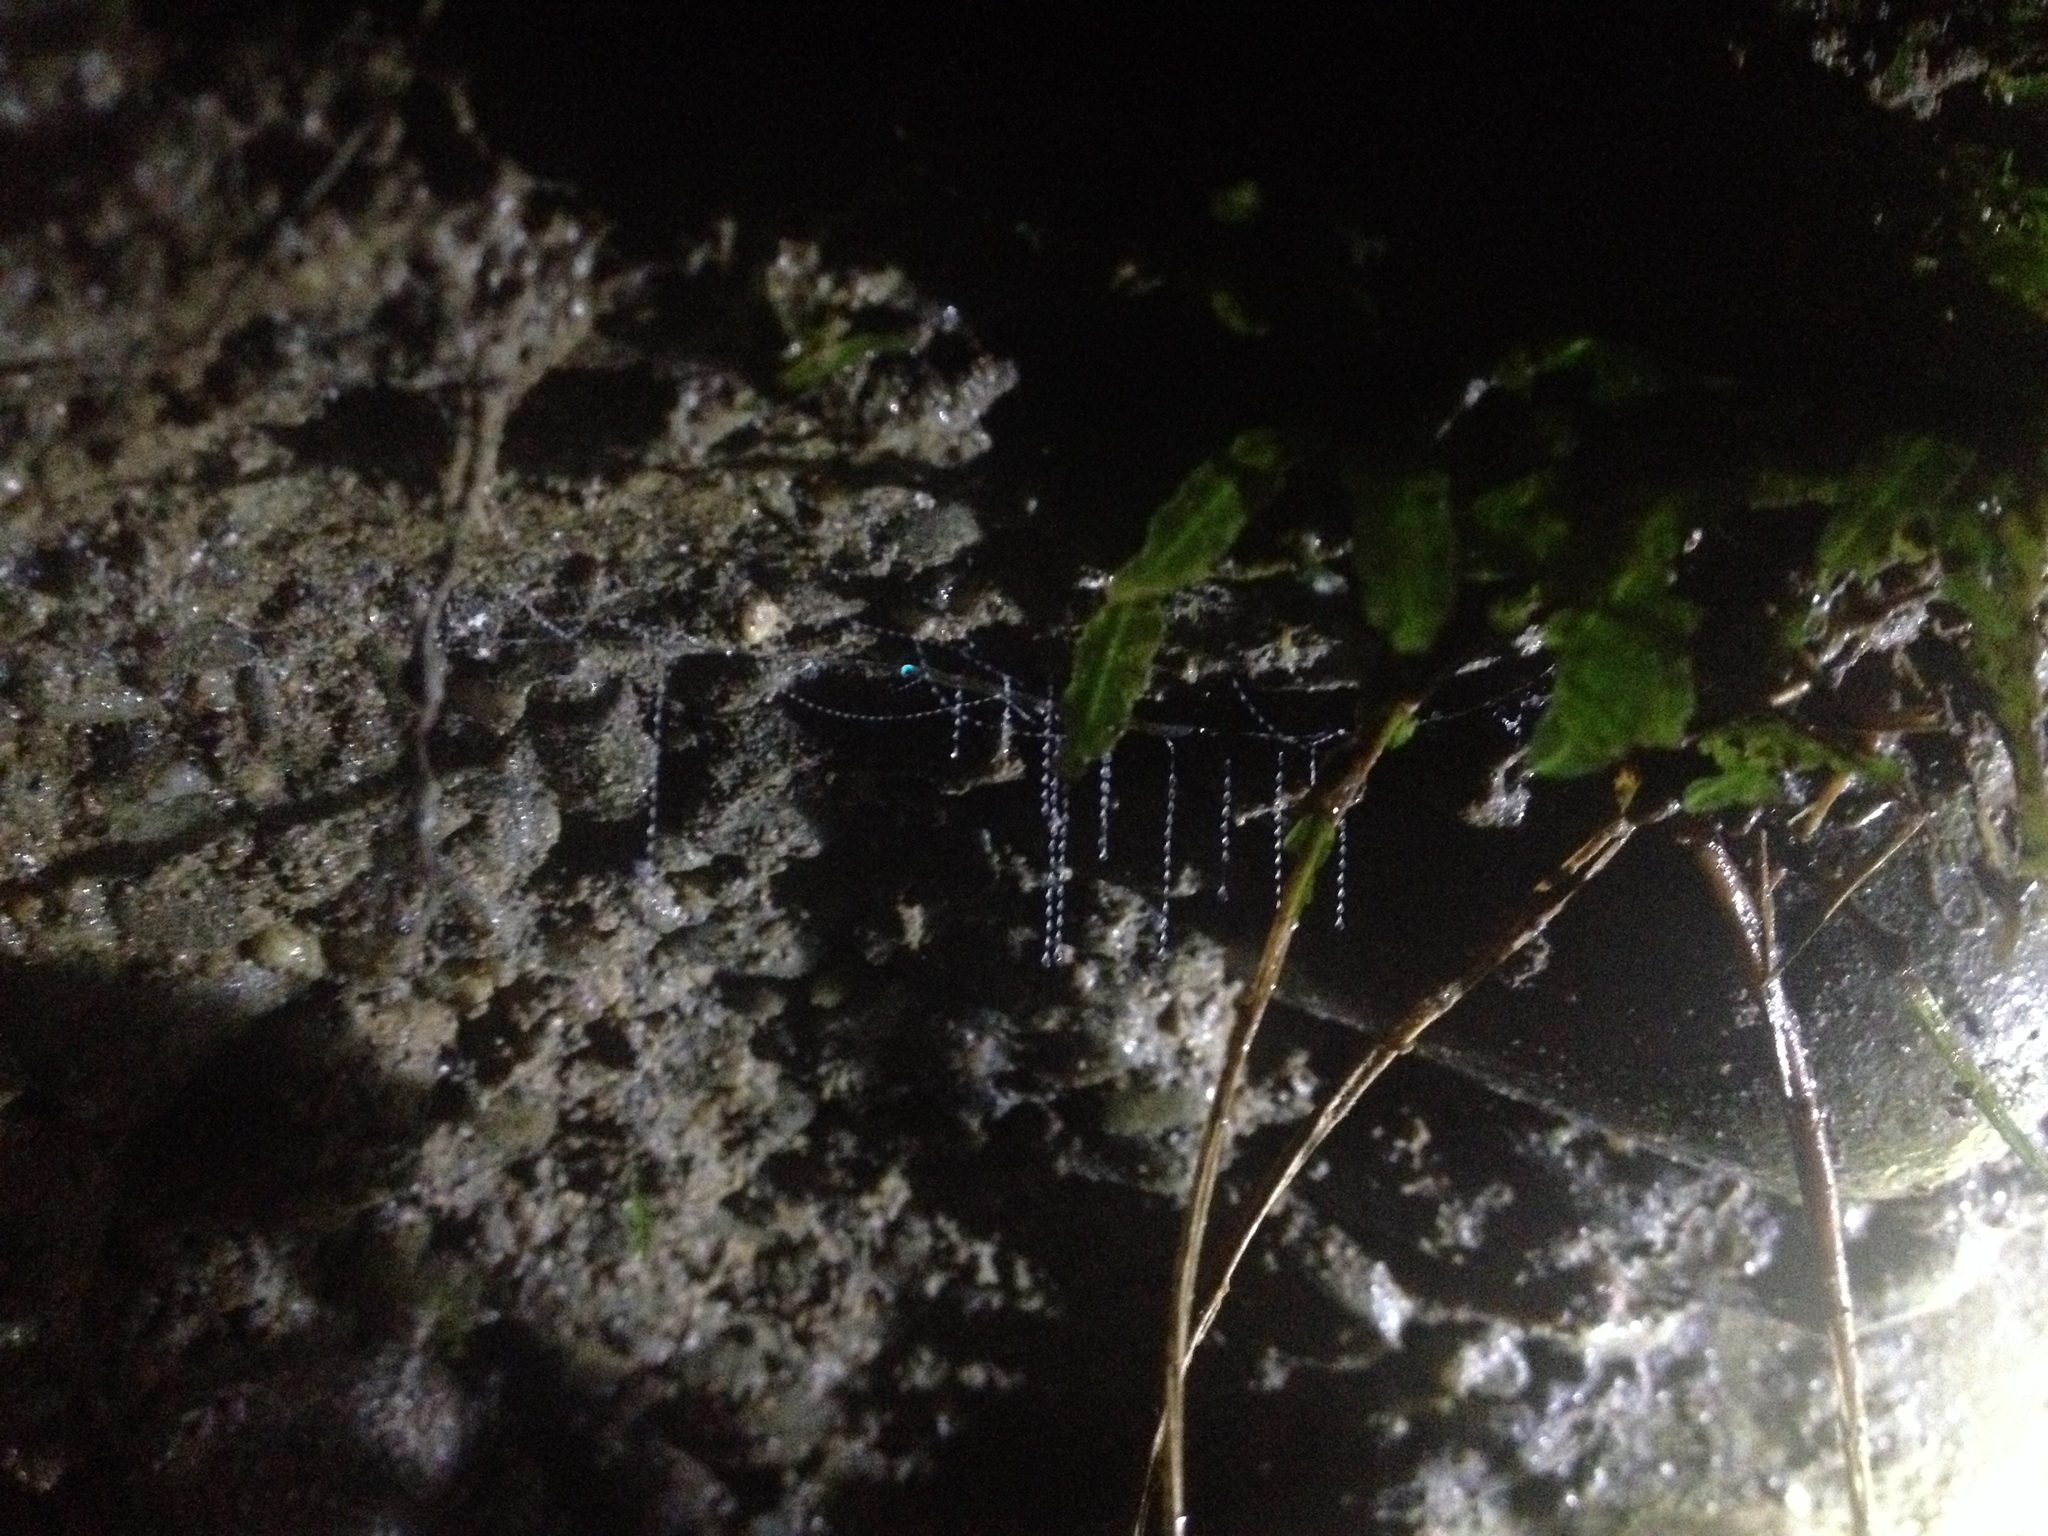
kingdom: Animalia
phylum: Arthropoda
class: Insecta
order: Diptera
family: Keroplatidae
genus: Arachnocampa
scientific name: Arachnocampa luminosa
